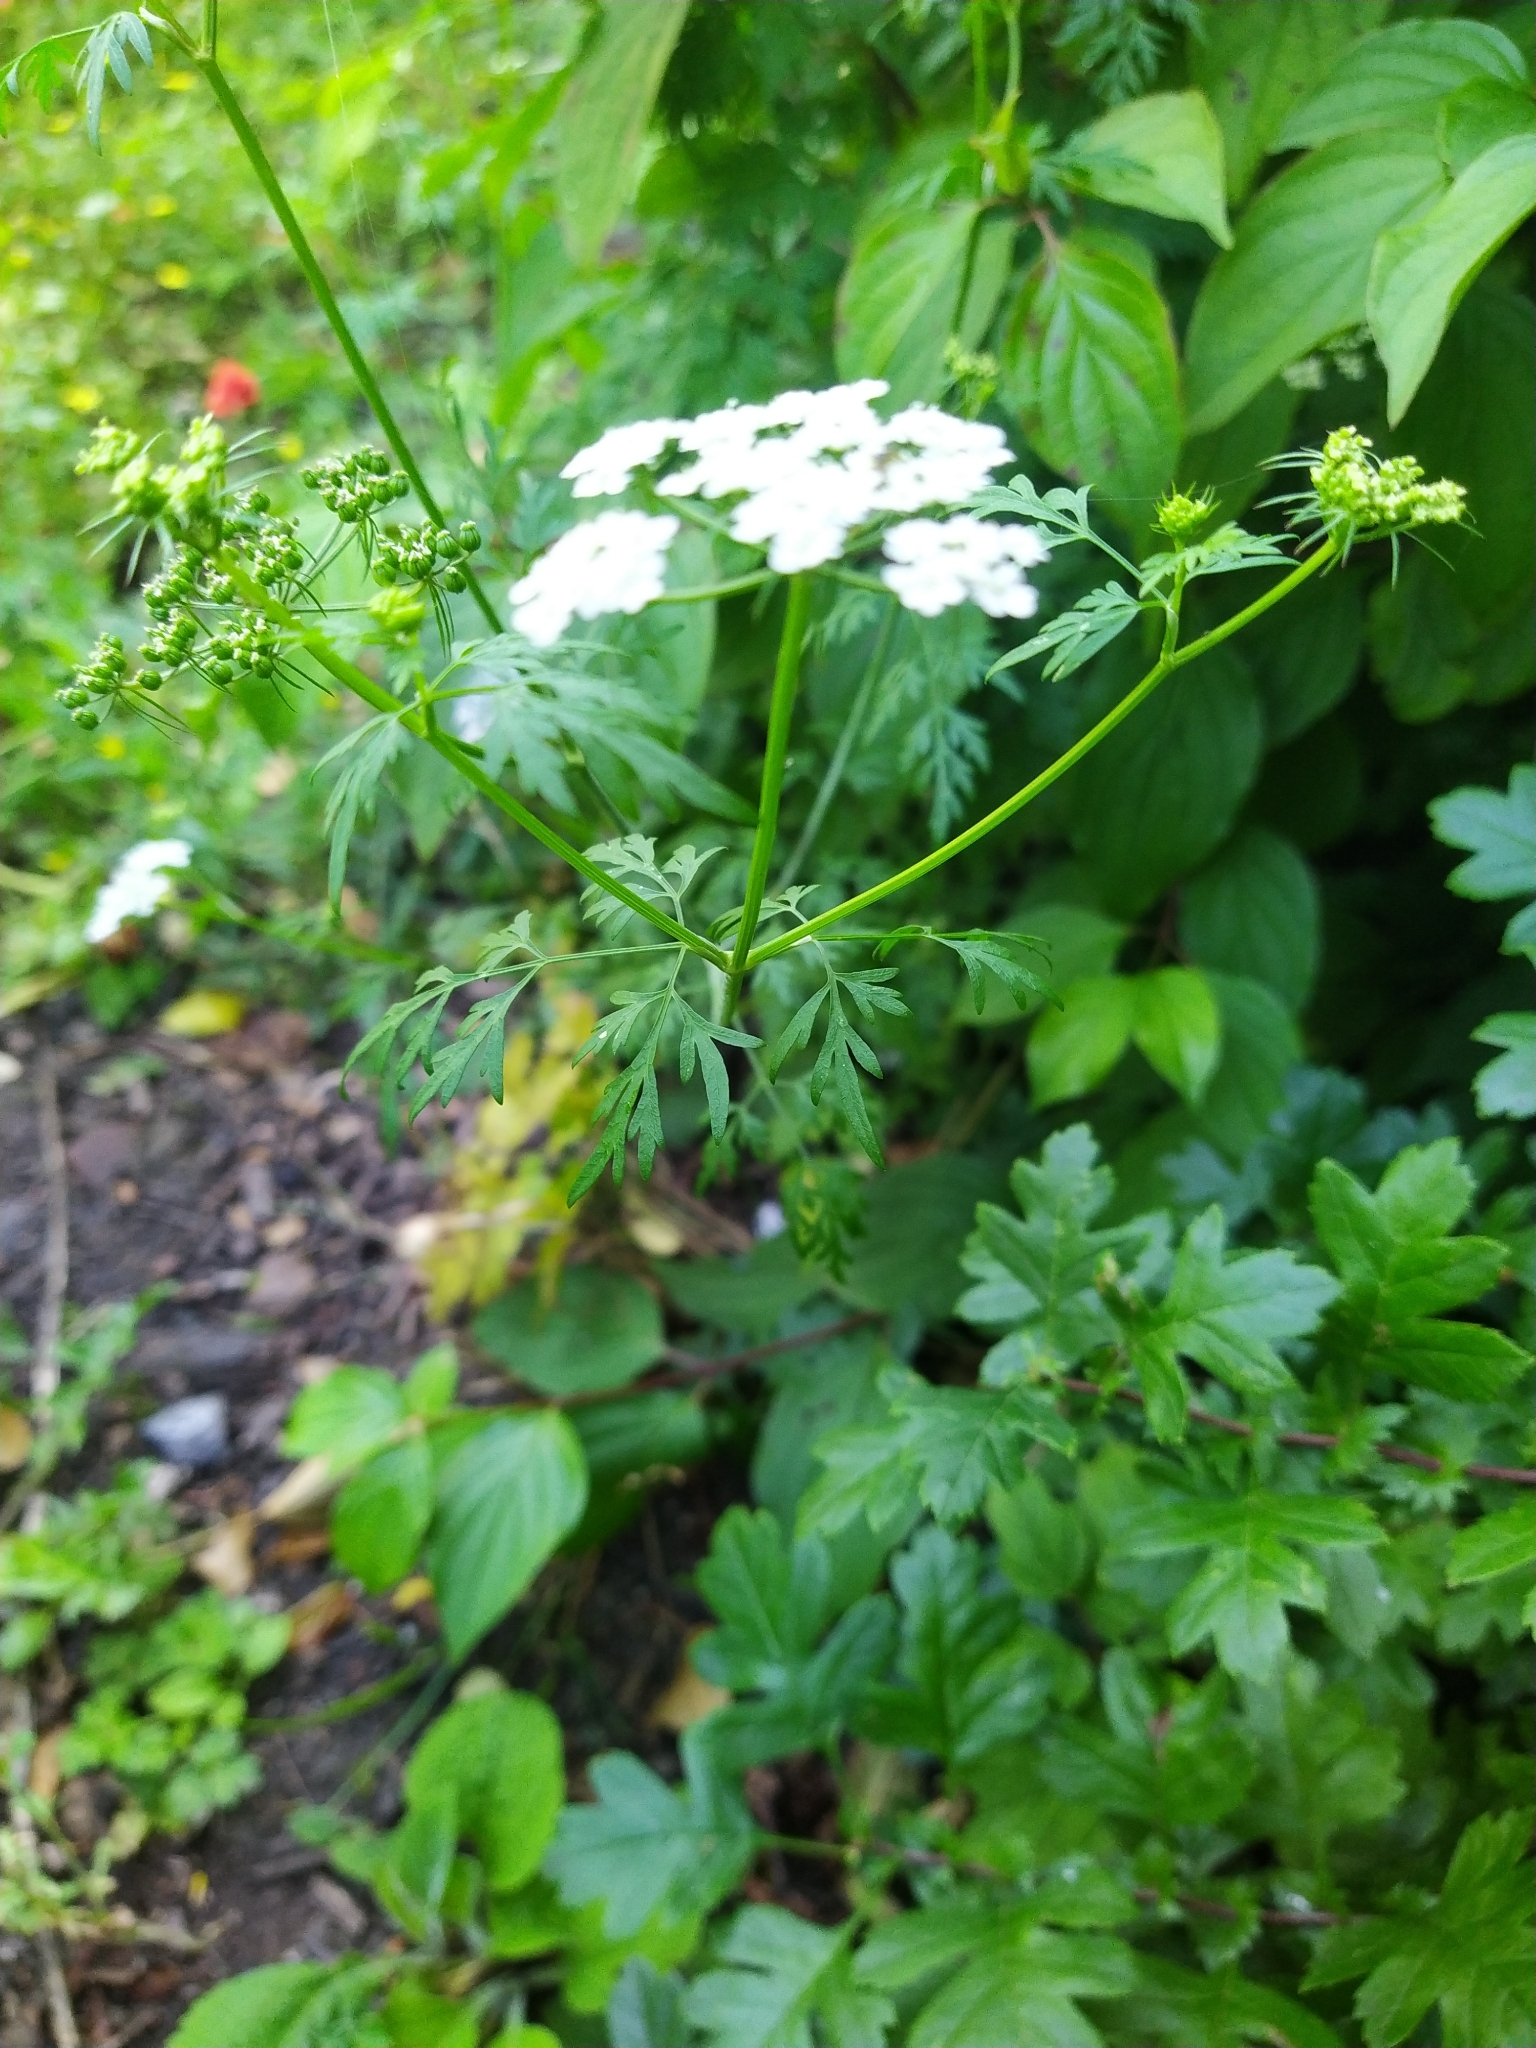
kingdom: Plantae
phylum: Tracheophyta
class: Magnoliopsida
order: Apiales
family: Apiaceae
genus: Aethusa
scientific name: Aethusa cynapium
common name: Fool's parsley
